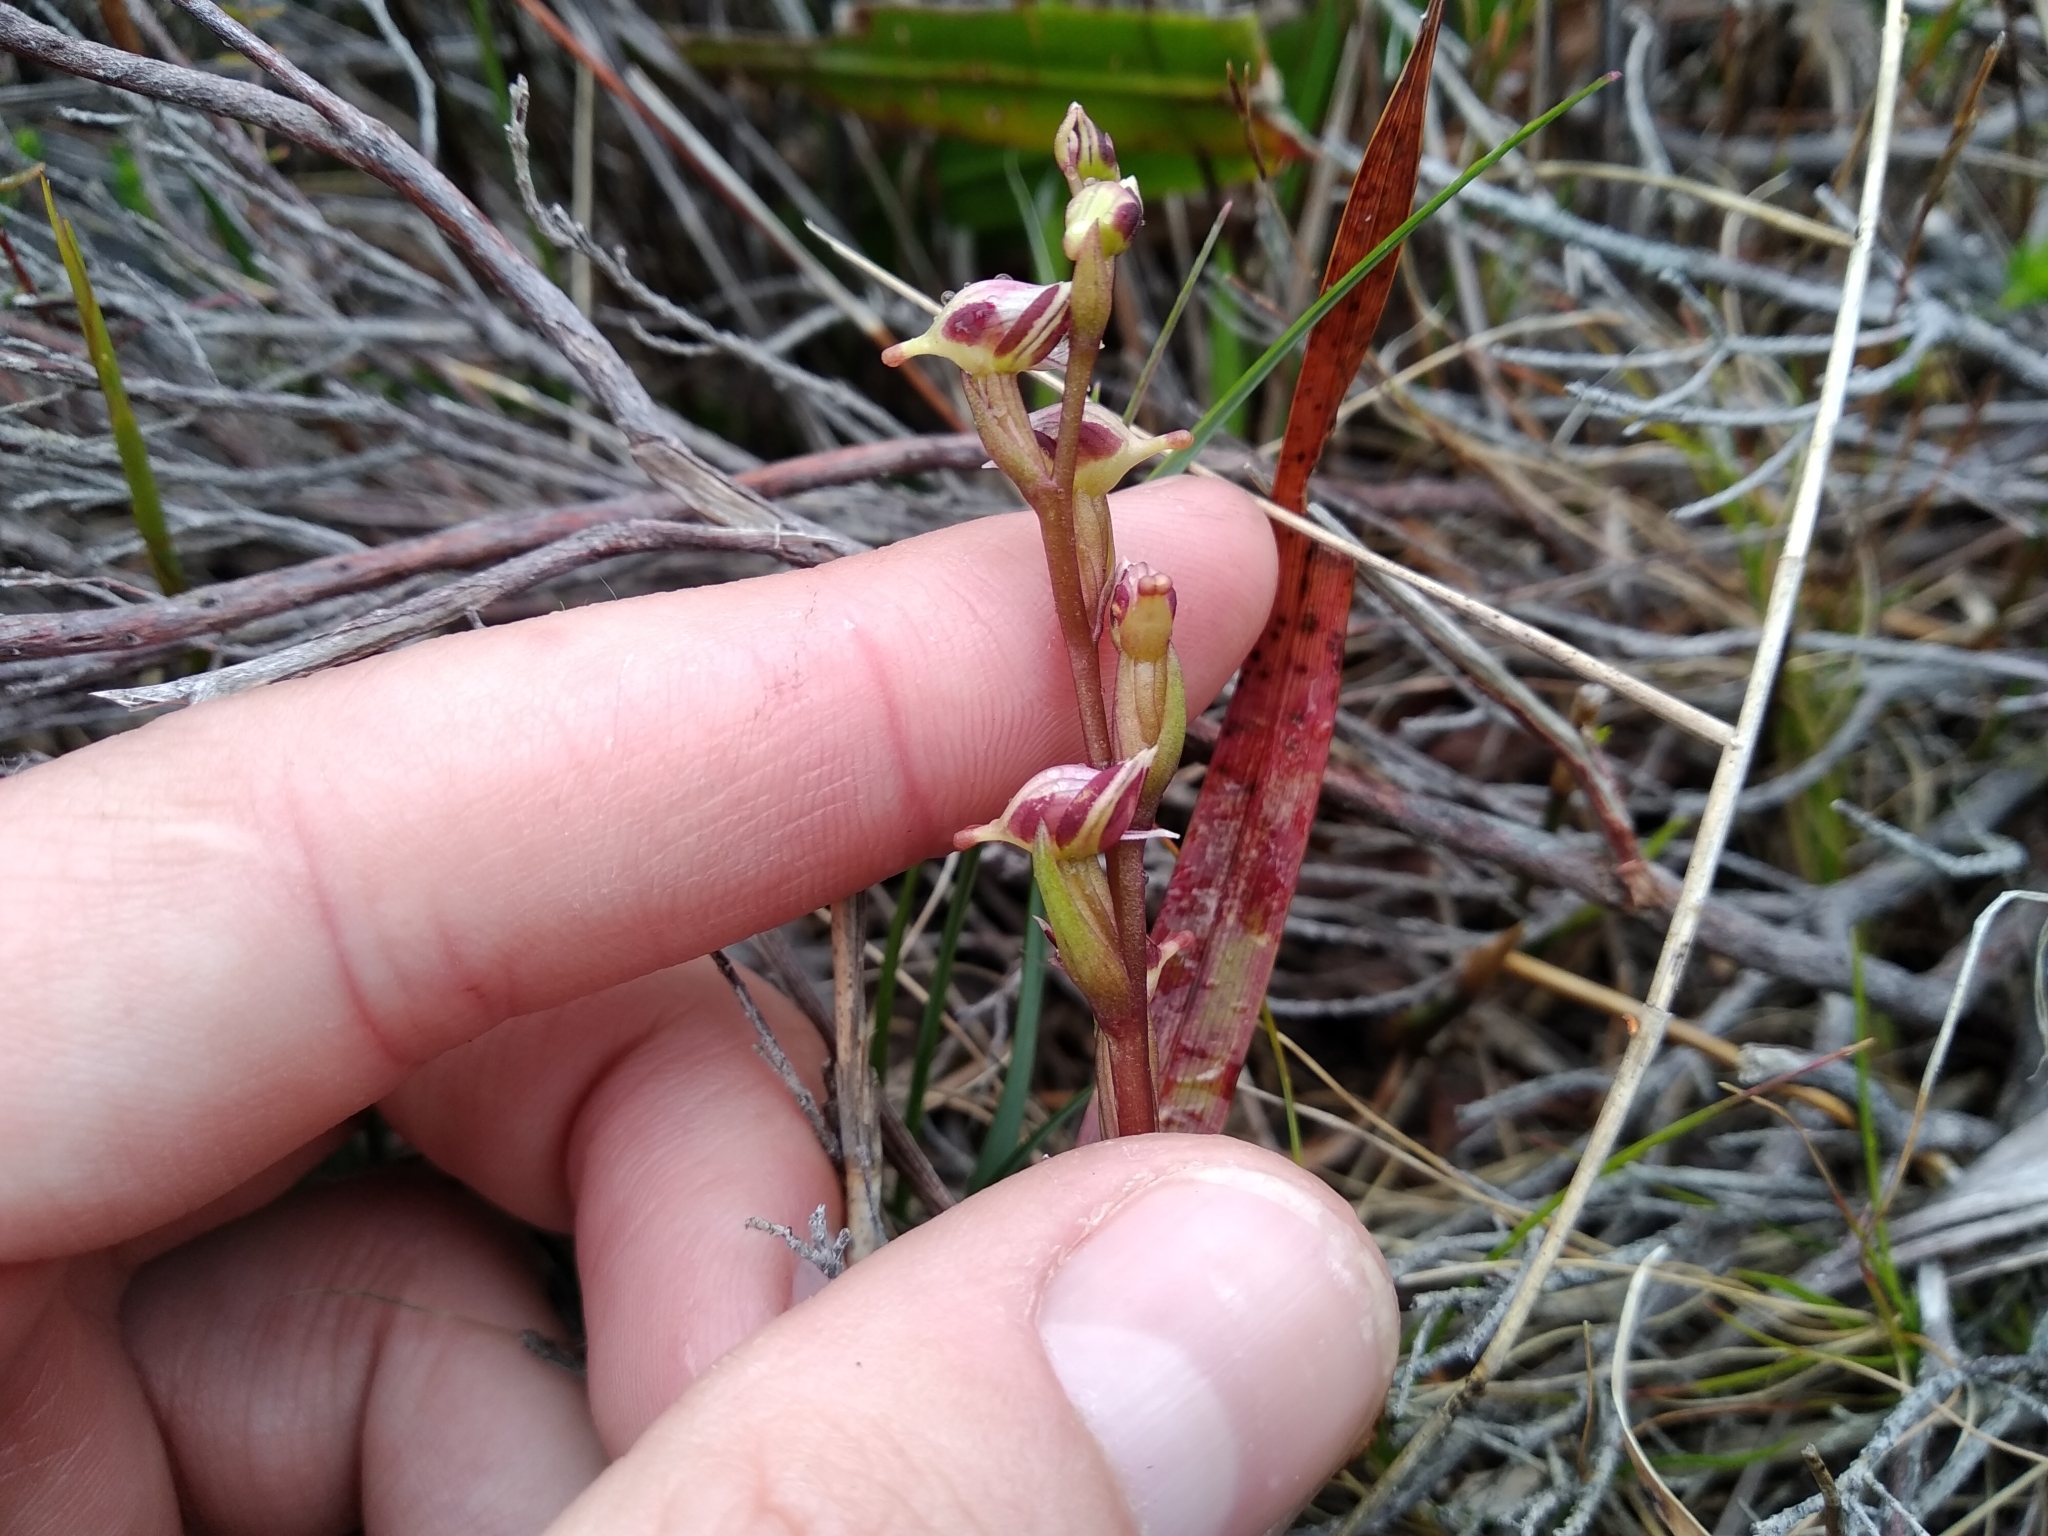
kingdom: Plantae
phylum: Tracheophyta
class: Liliopsida
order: Asparagales
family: Orchidaceae
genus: Disa
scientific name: Disa ocellata
